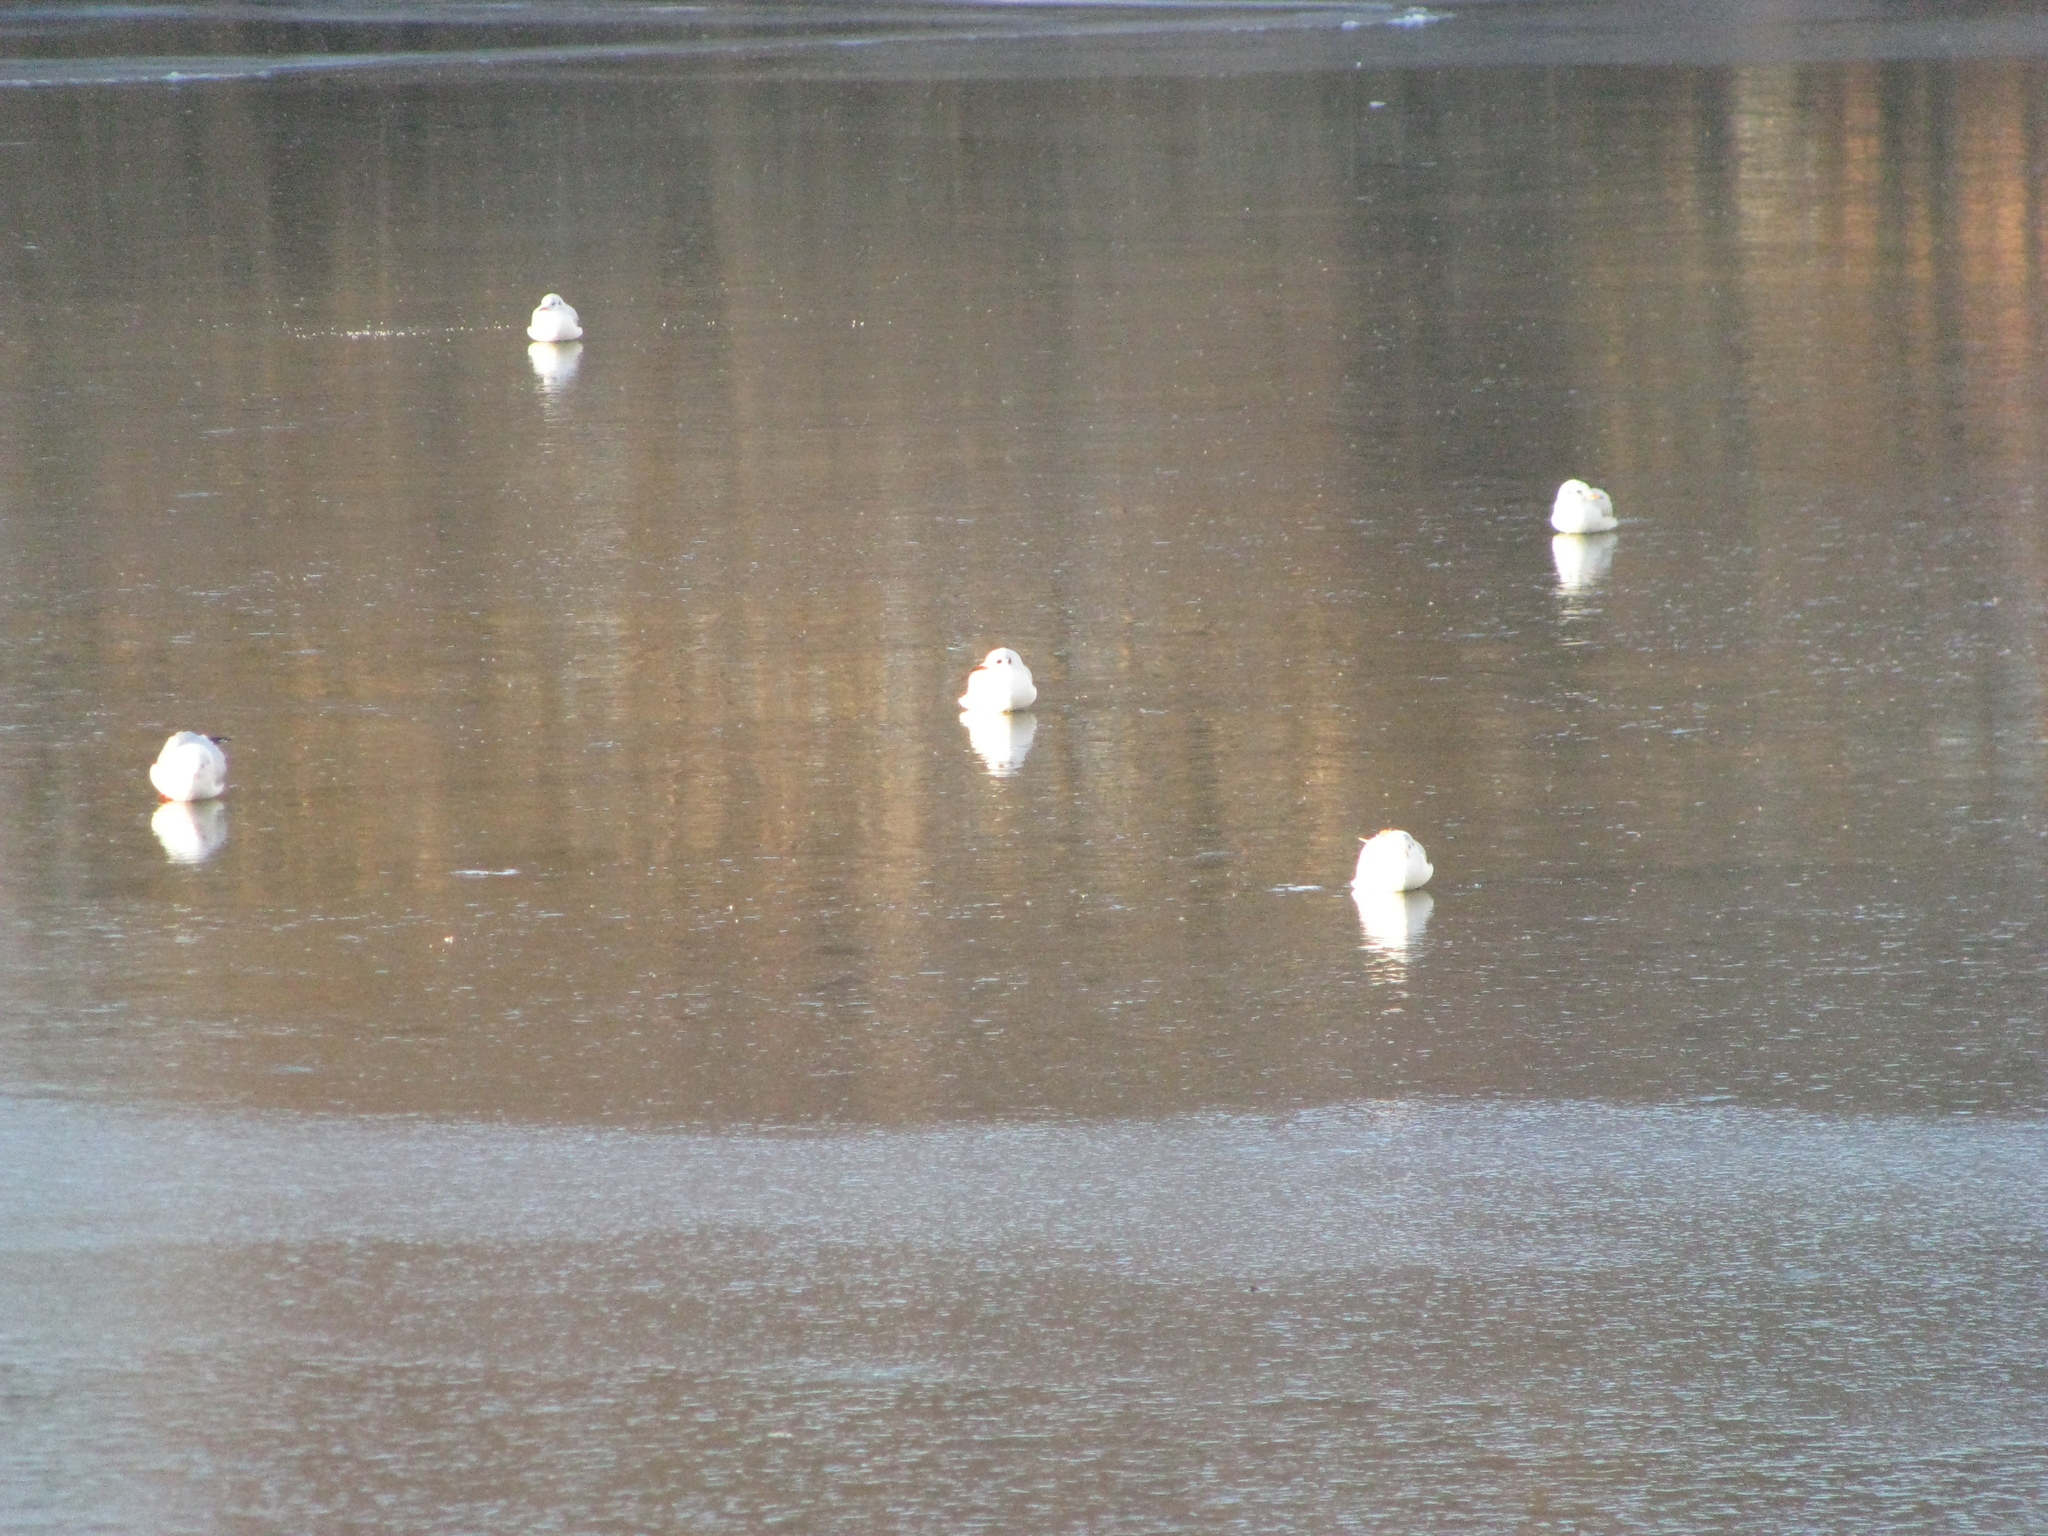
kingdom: Animalia
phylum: Chordata
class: Aves
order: Charadriiformes
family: Laridae
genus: Chroicocephalus
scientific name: Chroicocephalus ridibundus
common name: Black-headed gull
